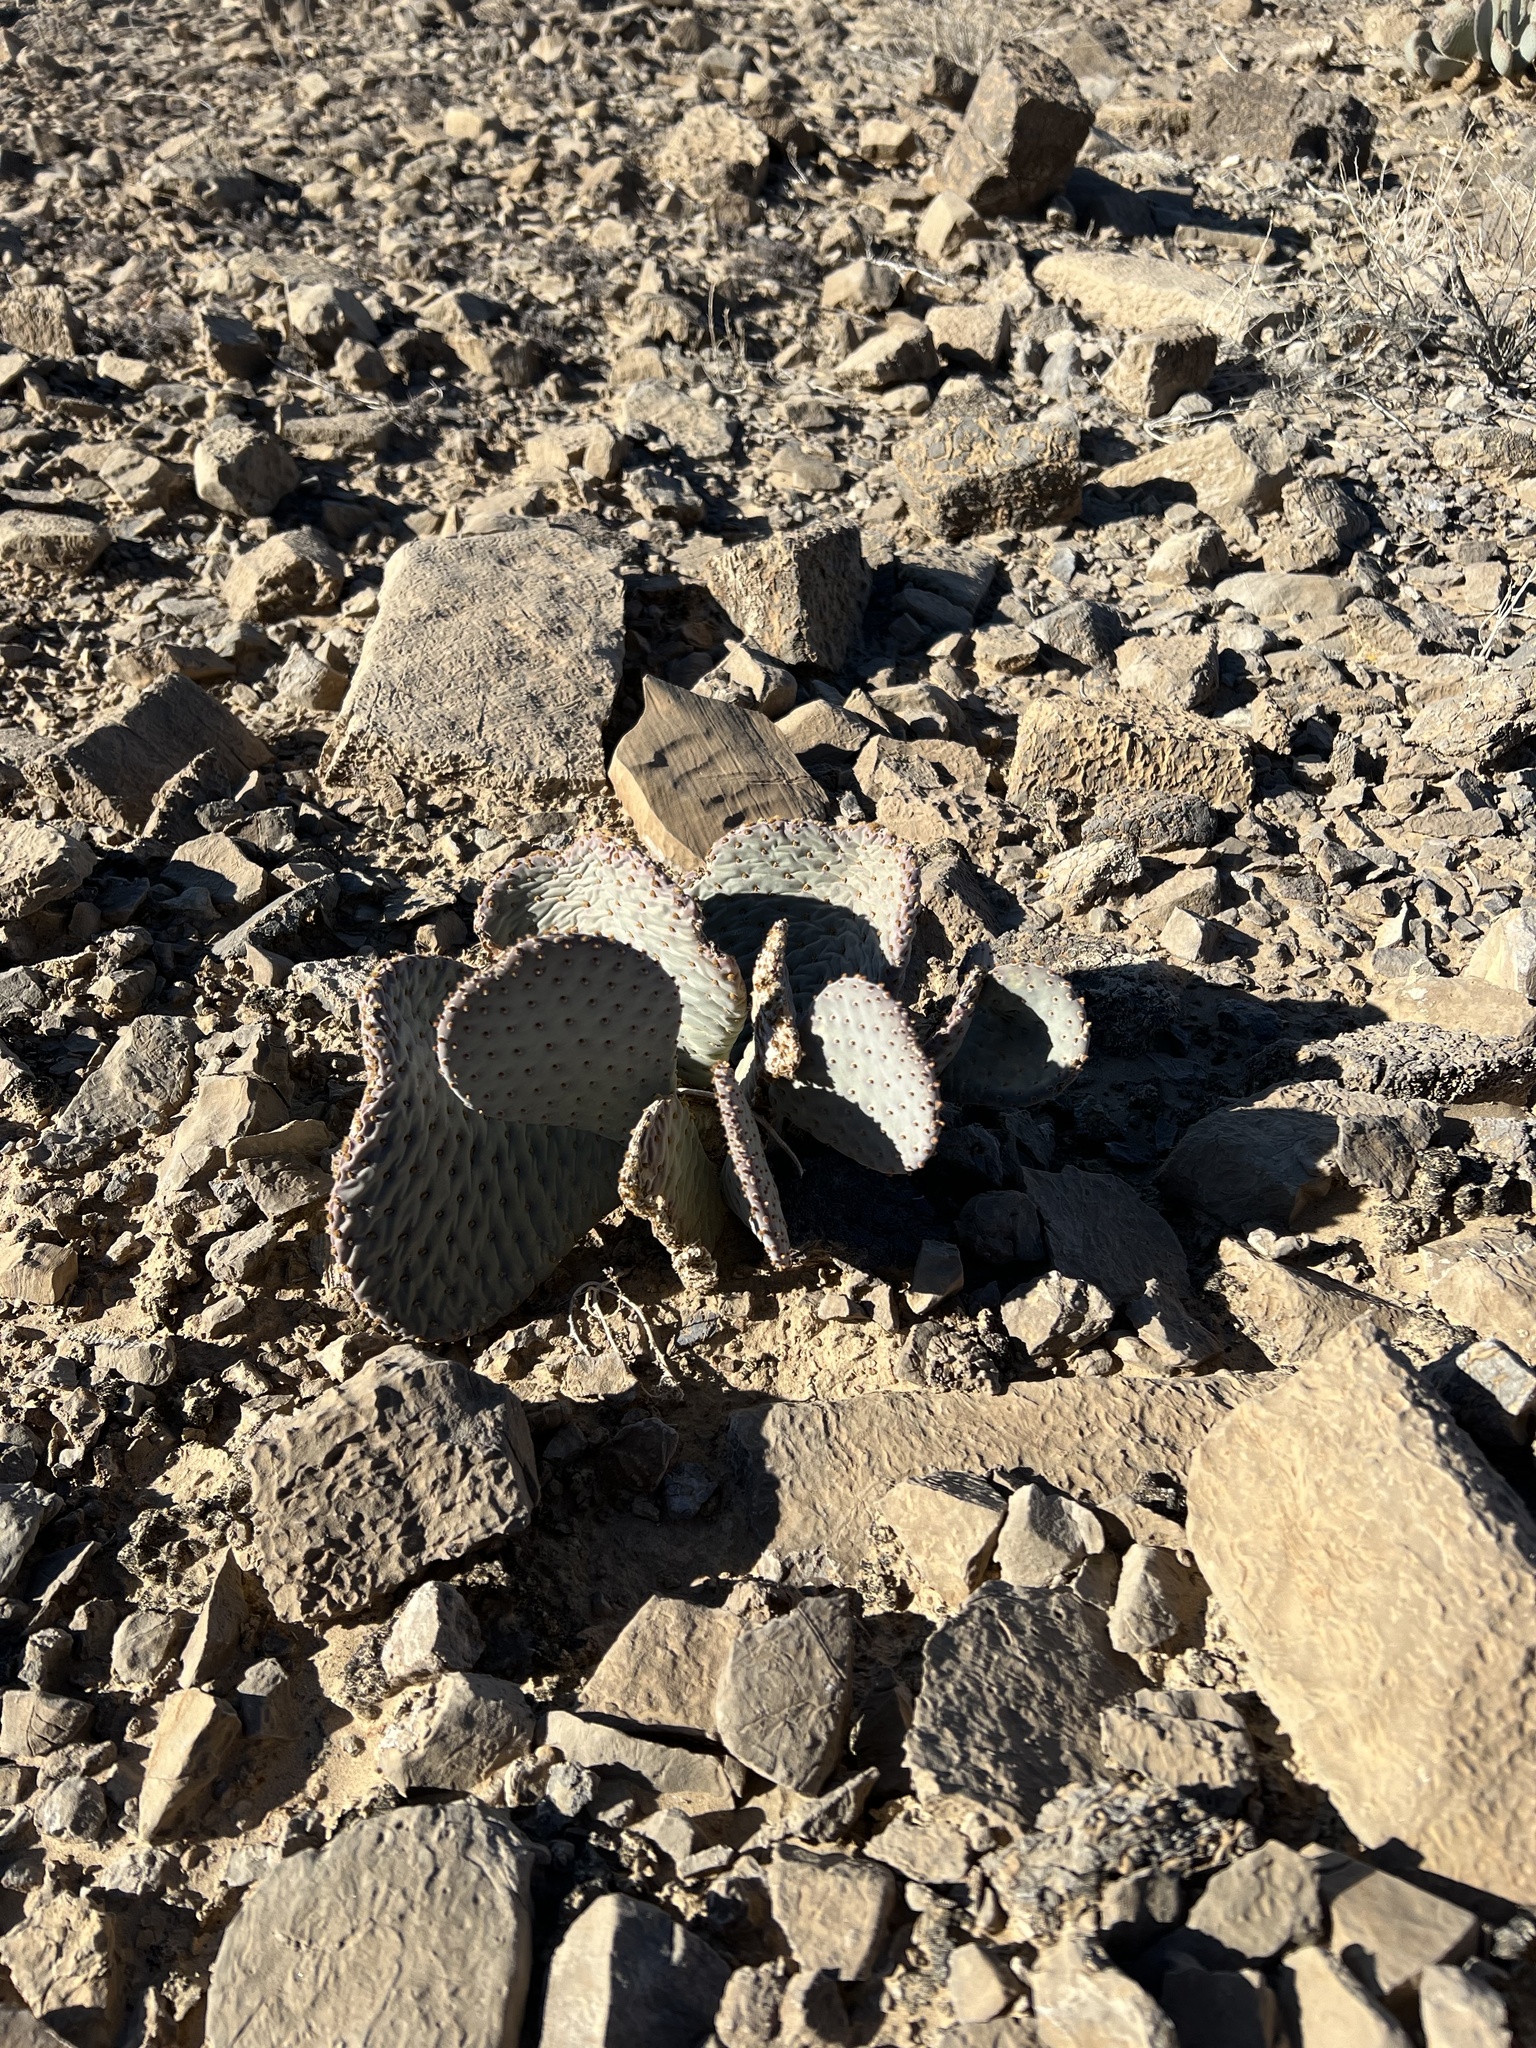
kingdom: Plantae
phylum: Tracheophyta
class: Magnoliopsida
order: Caryophyllales
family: Cactaceae
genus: Opuntia
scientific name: Opuntia basilaris
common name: Beavertail prickly-pear
